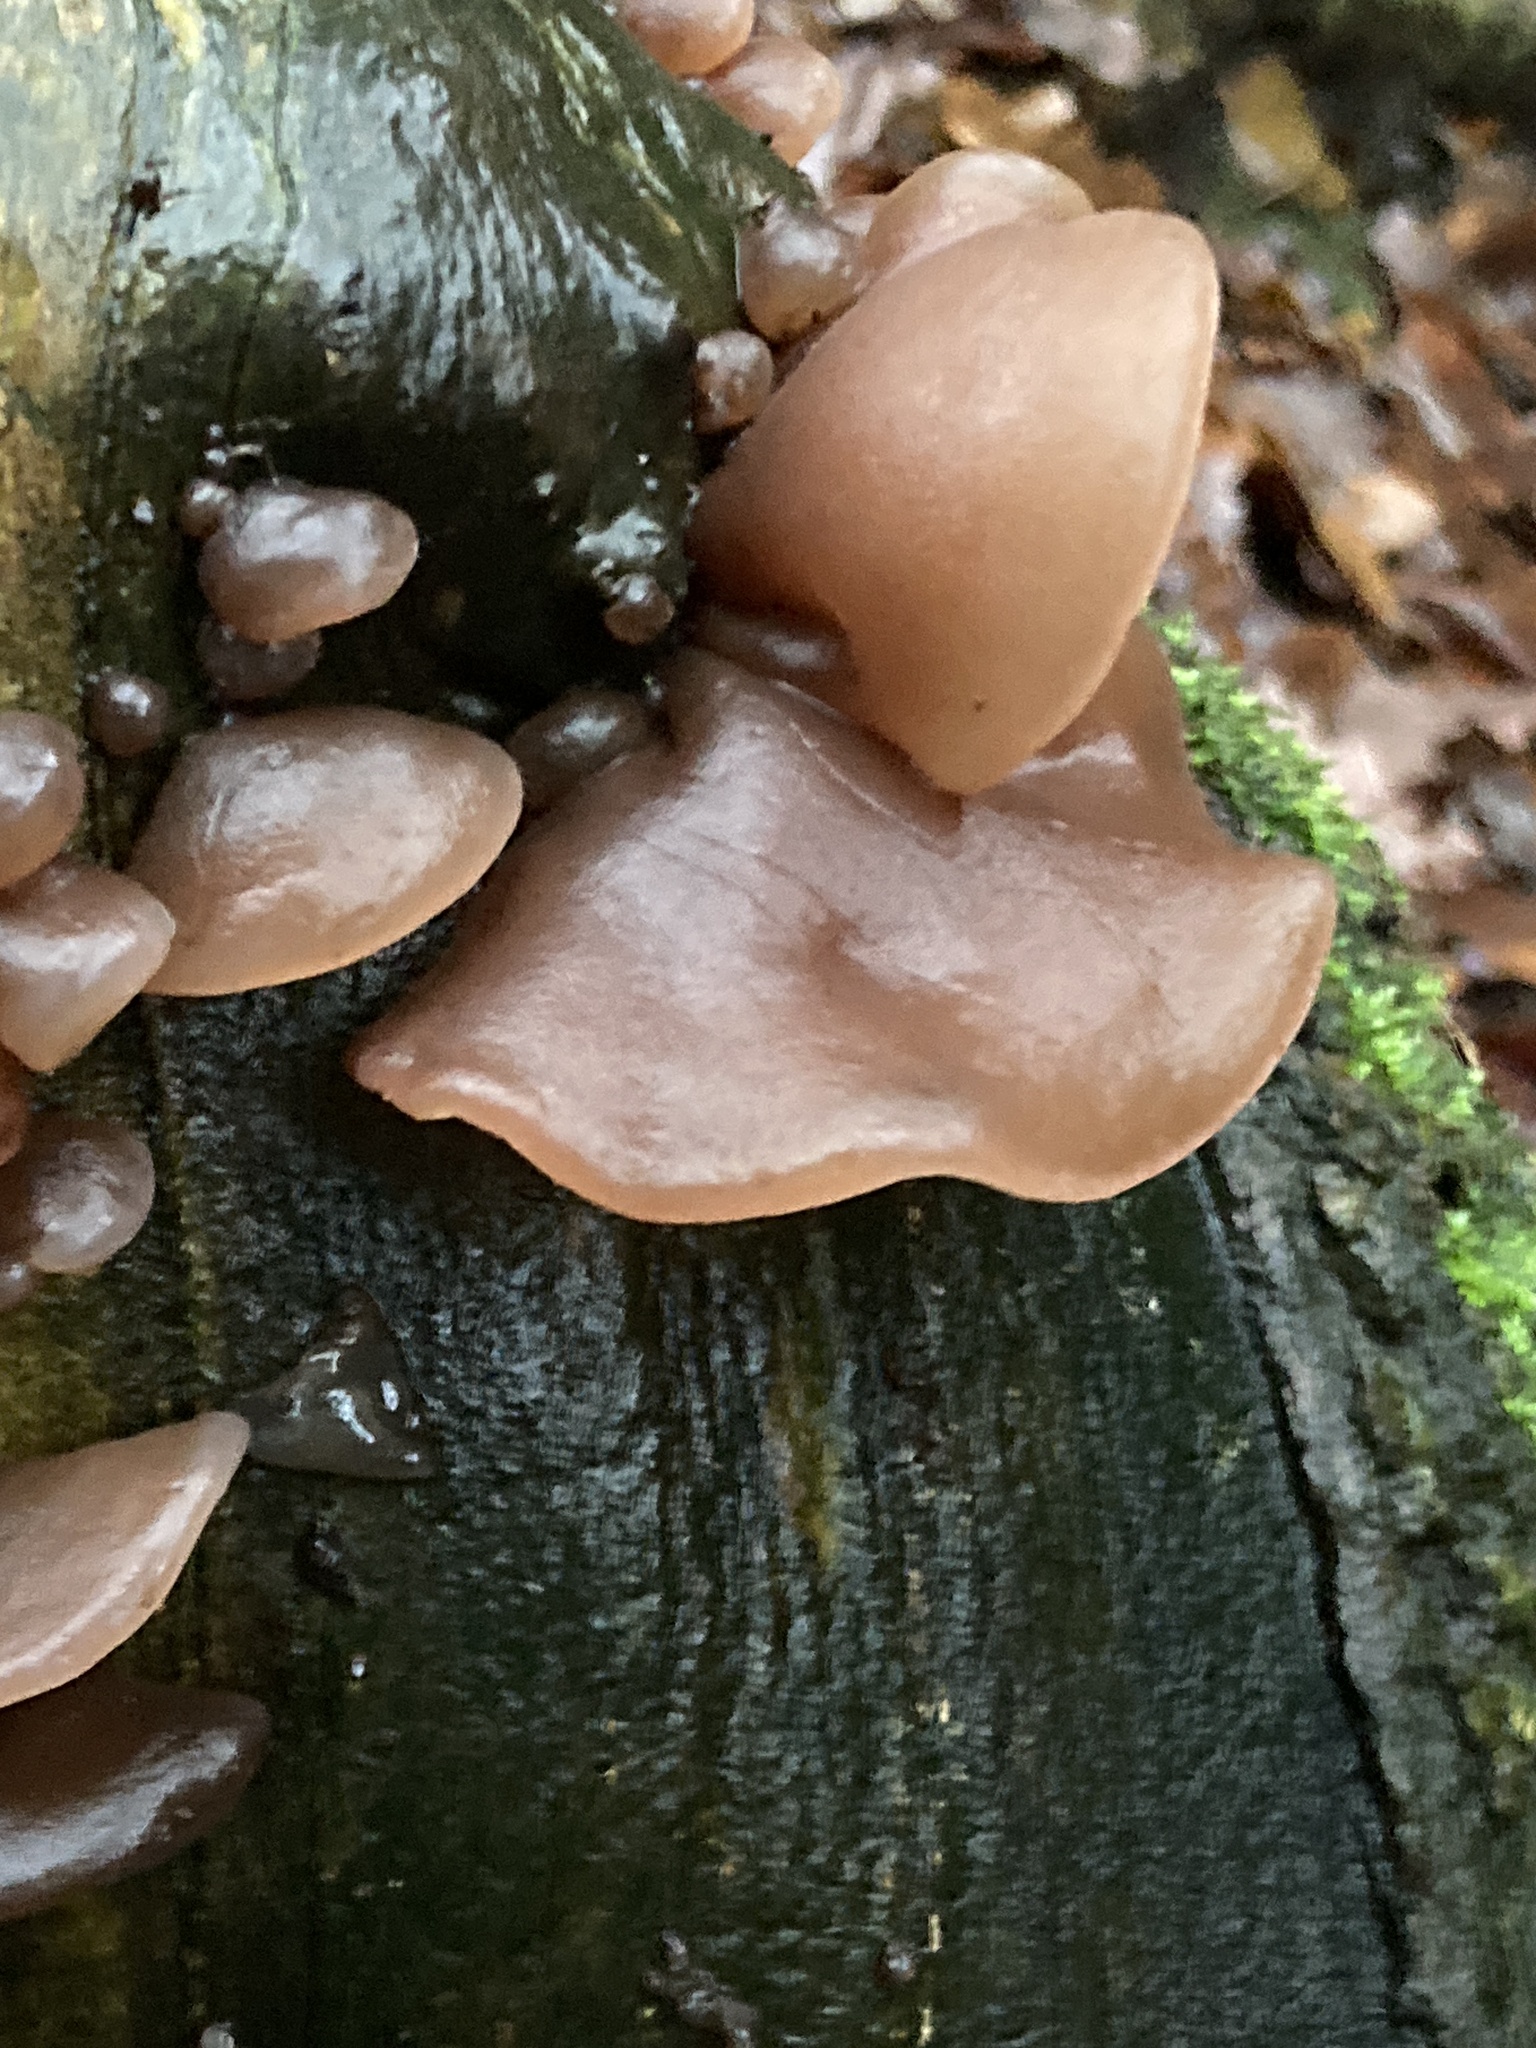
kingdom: Fungi
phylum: Basidiomycota
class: Agaricomycetes
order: Auriculariales
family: Auriculariaceae
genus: Auricularia
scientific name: Auricularia auricula-judae
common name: Jelly ear
